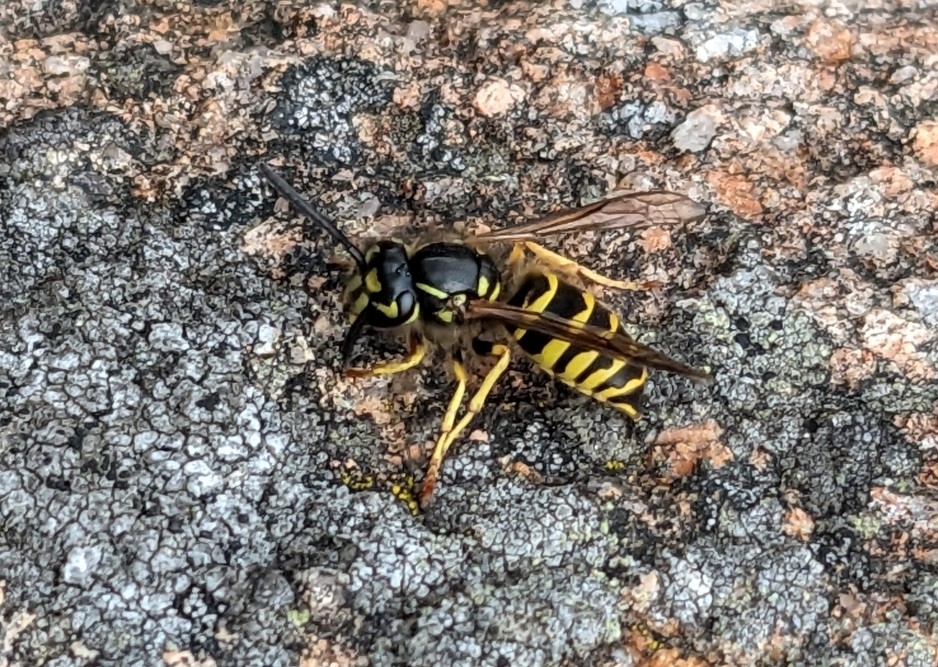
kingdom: Animalia
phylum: Arthropoda
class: Insecta
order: Hymenoptera
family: Vespidae
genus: Vespula
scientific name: Vespula alascensis
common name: Alaska yellowjacket
